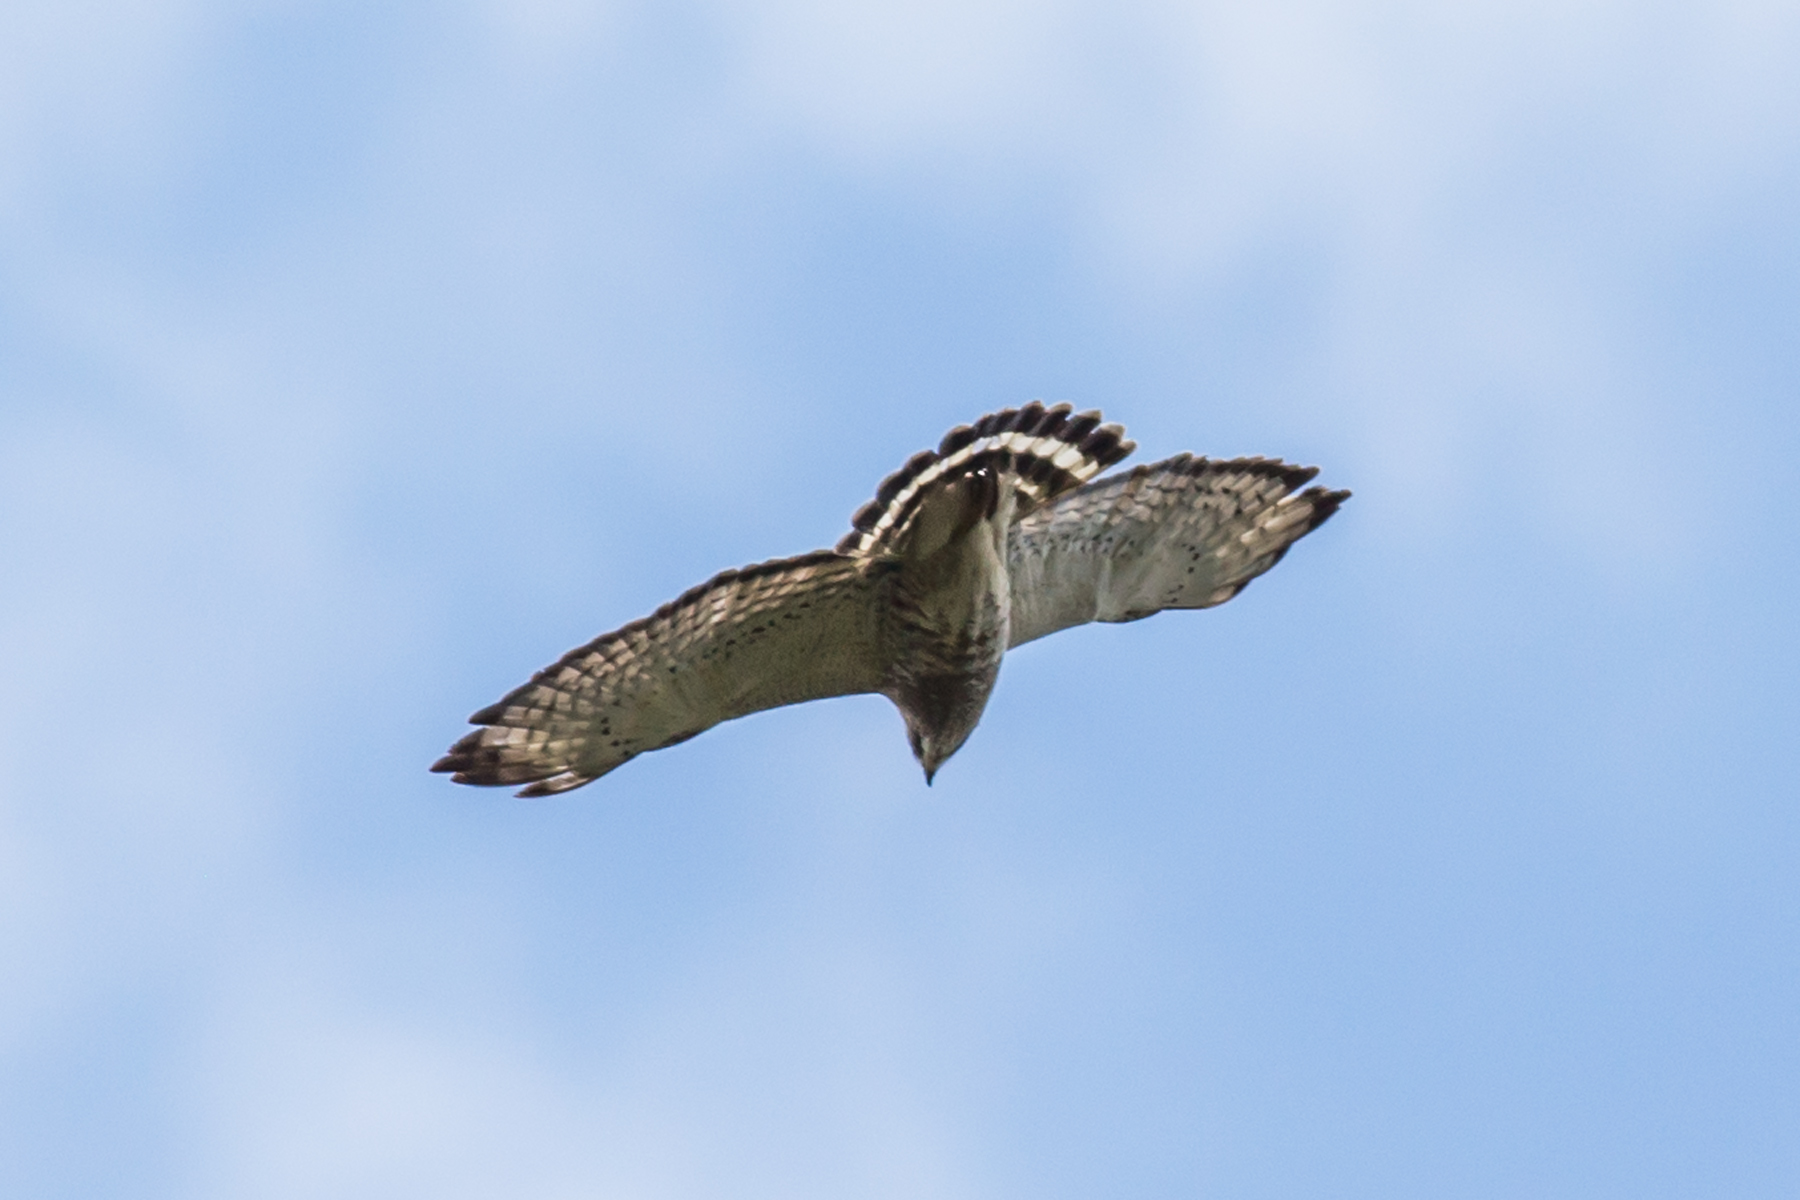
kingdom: Animalia
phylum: Chordata
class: Aves
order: Accipitriformes
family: Accipitridae
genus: Buteo
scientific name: Buteo platypterus
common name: Broad-winged hawk
